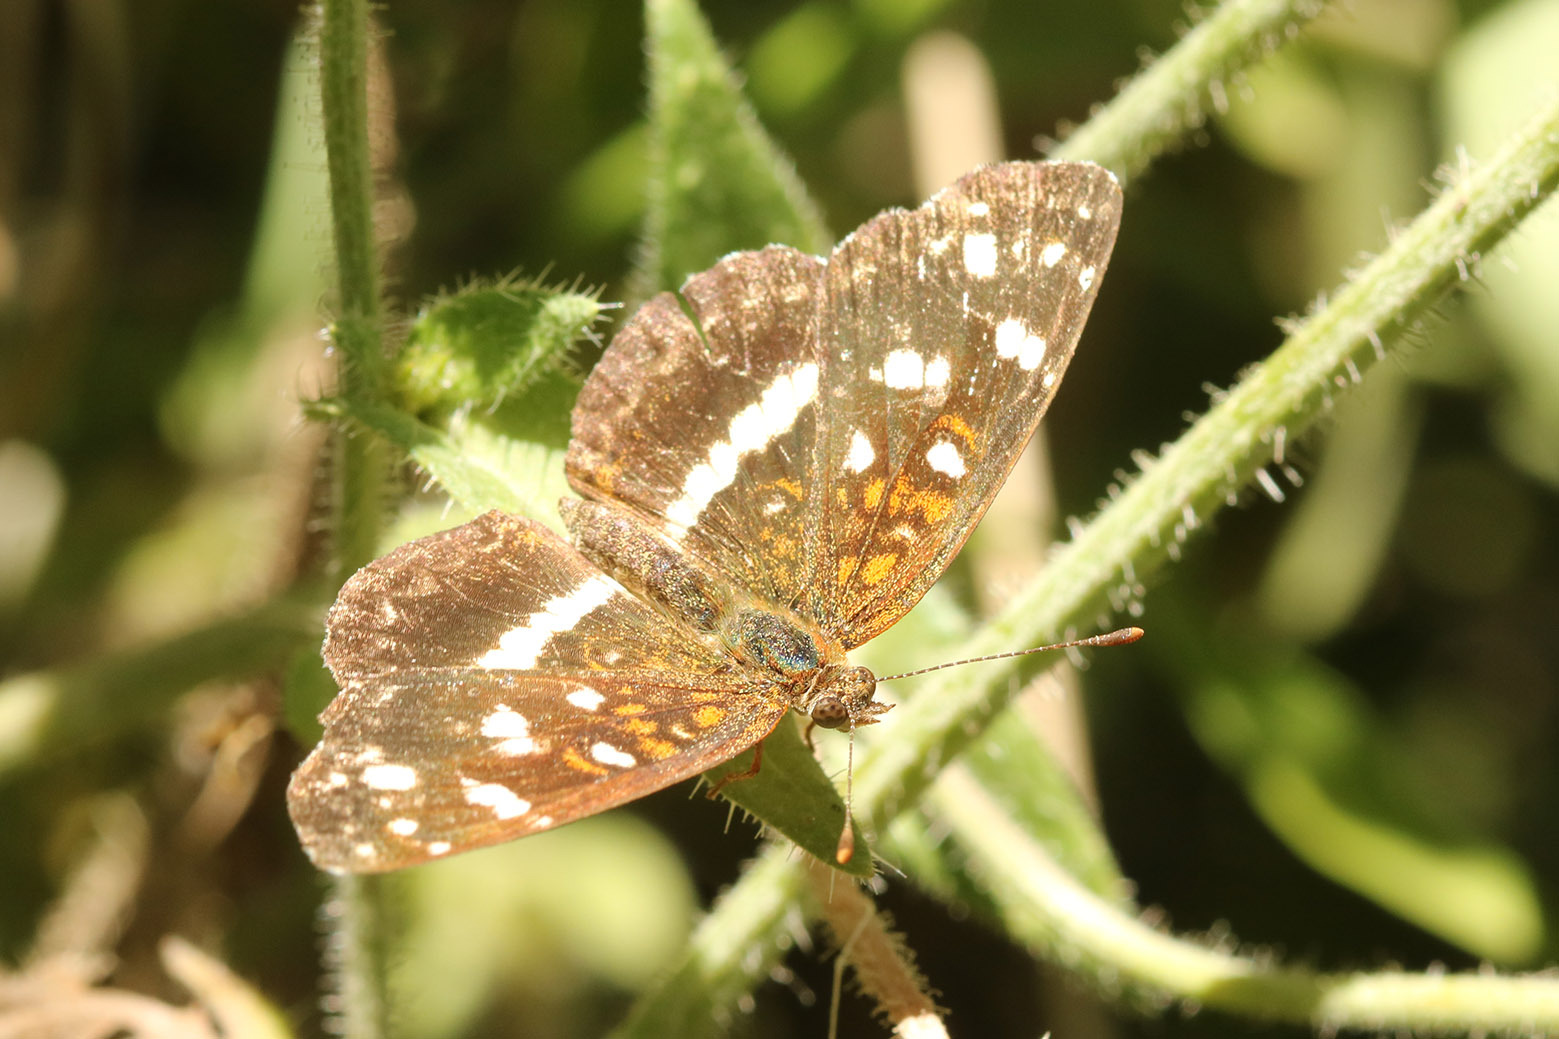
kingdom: Animalia
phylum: Arthropoda
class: Insecta
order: Lepidoptera
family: Nymphalidae
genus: Ortilia
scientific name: Ortilia ithra
